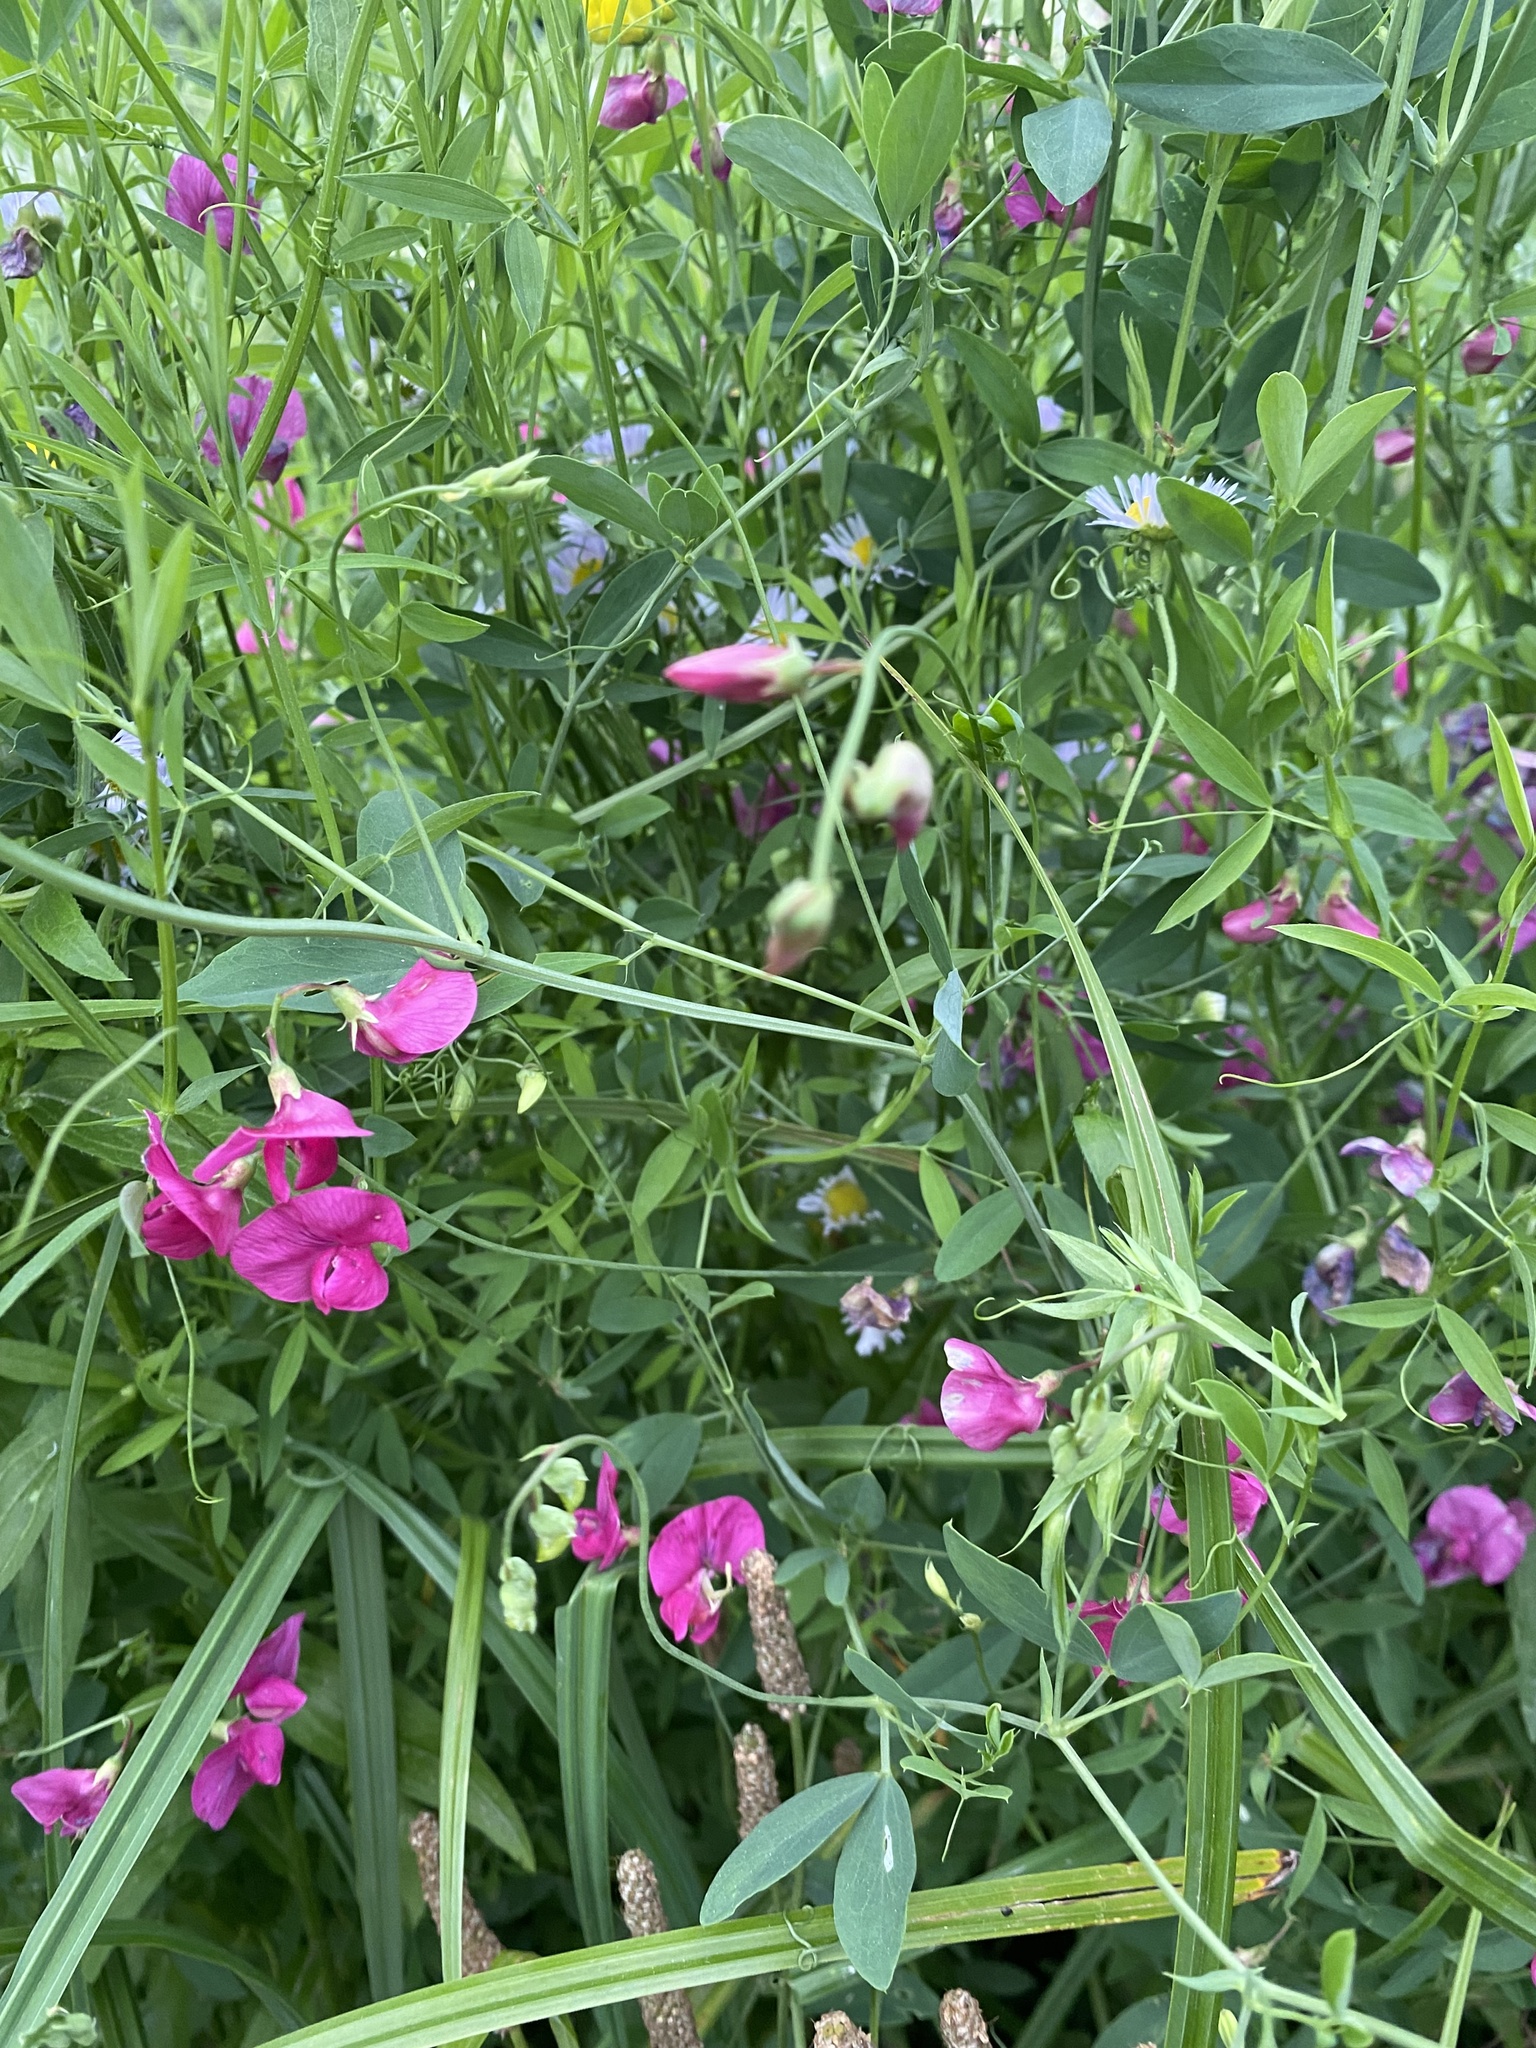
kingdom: Plantae
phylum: Tracheophyta
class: Magnoliopsida
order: Fabales
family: Fabaceae
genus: Lathyrus
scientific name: Lathyrus tuberosus
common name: Tuberous pea
